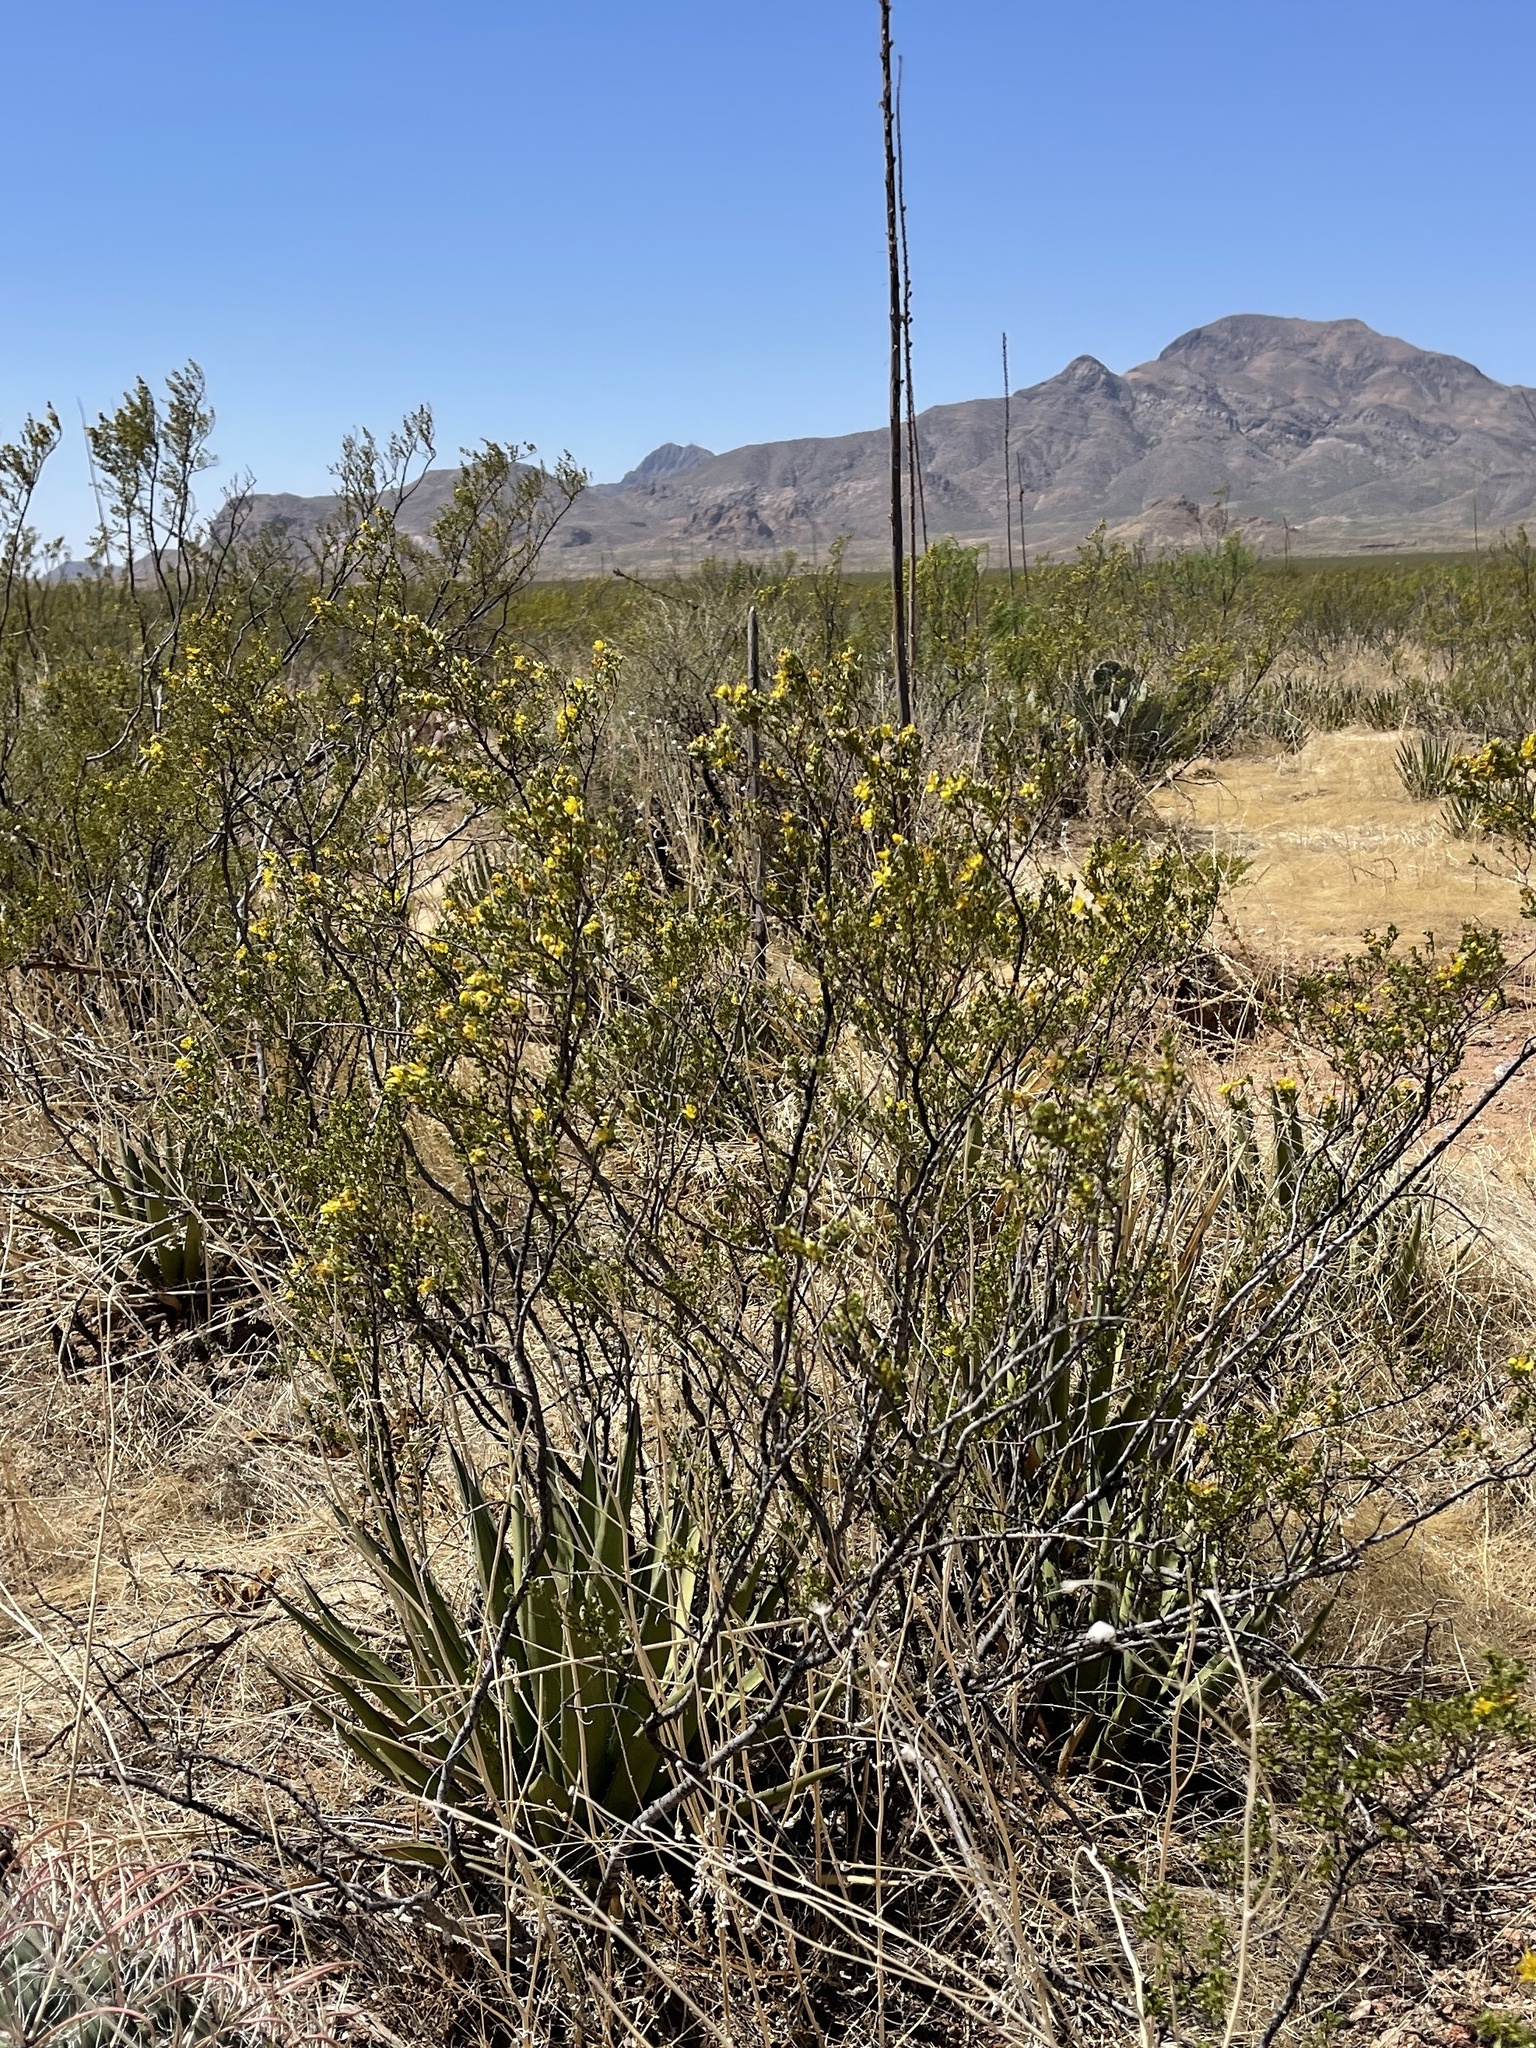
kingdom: Plantae
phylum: Tracheophyta
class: Magnoliopsida
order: Zygophyllales
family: Zygophyllaceae
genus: Larrea
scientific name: Larrea tridentata
